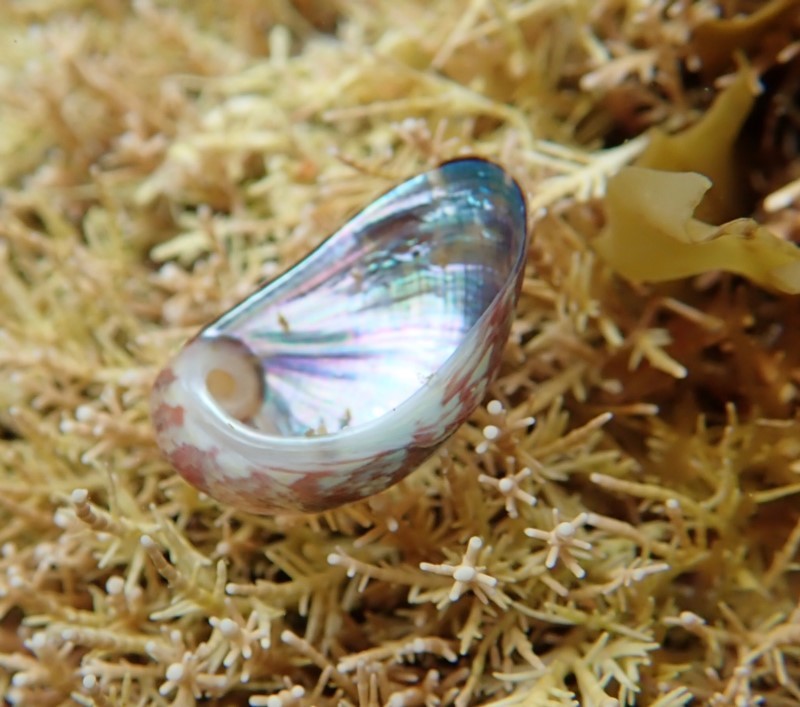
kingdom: Animalia
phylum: Mollusca
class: Gastropoda
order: Trochida
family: Trochidae
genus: Stomatella
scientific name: Stomatella impertusa
